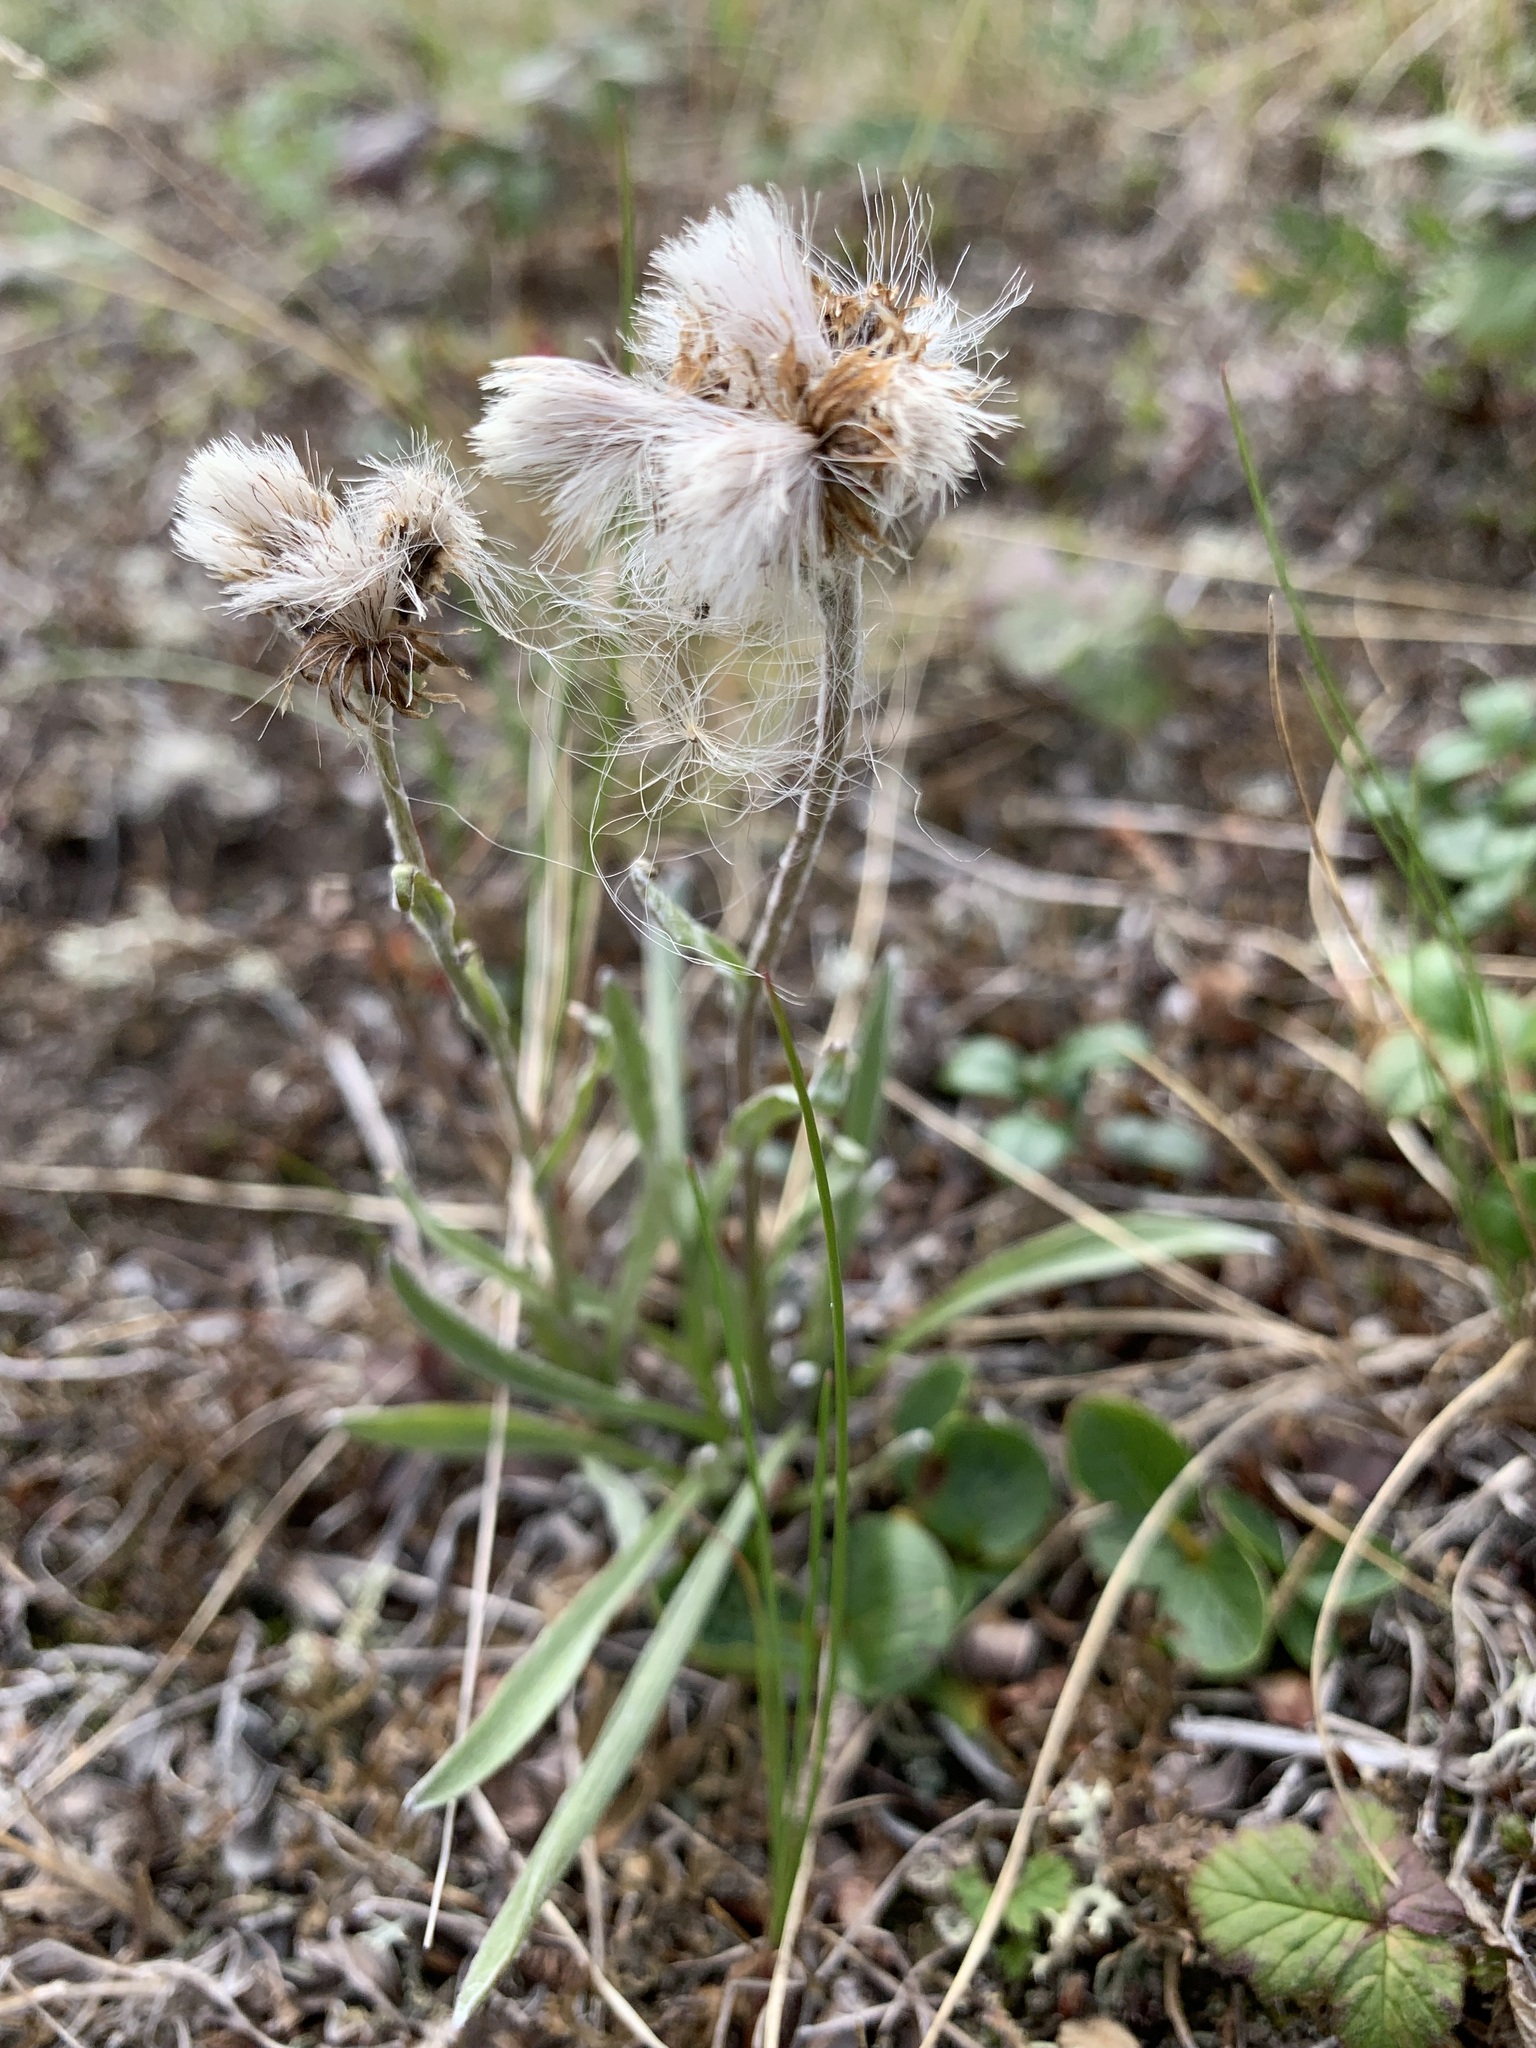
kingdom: Plantae
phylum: Tracheophyta
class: Magnoliopsida
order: Asterales
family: Asteraceae
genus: Antennaria
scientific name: Antennaria lanata
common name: Woolly pussytoes
